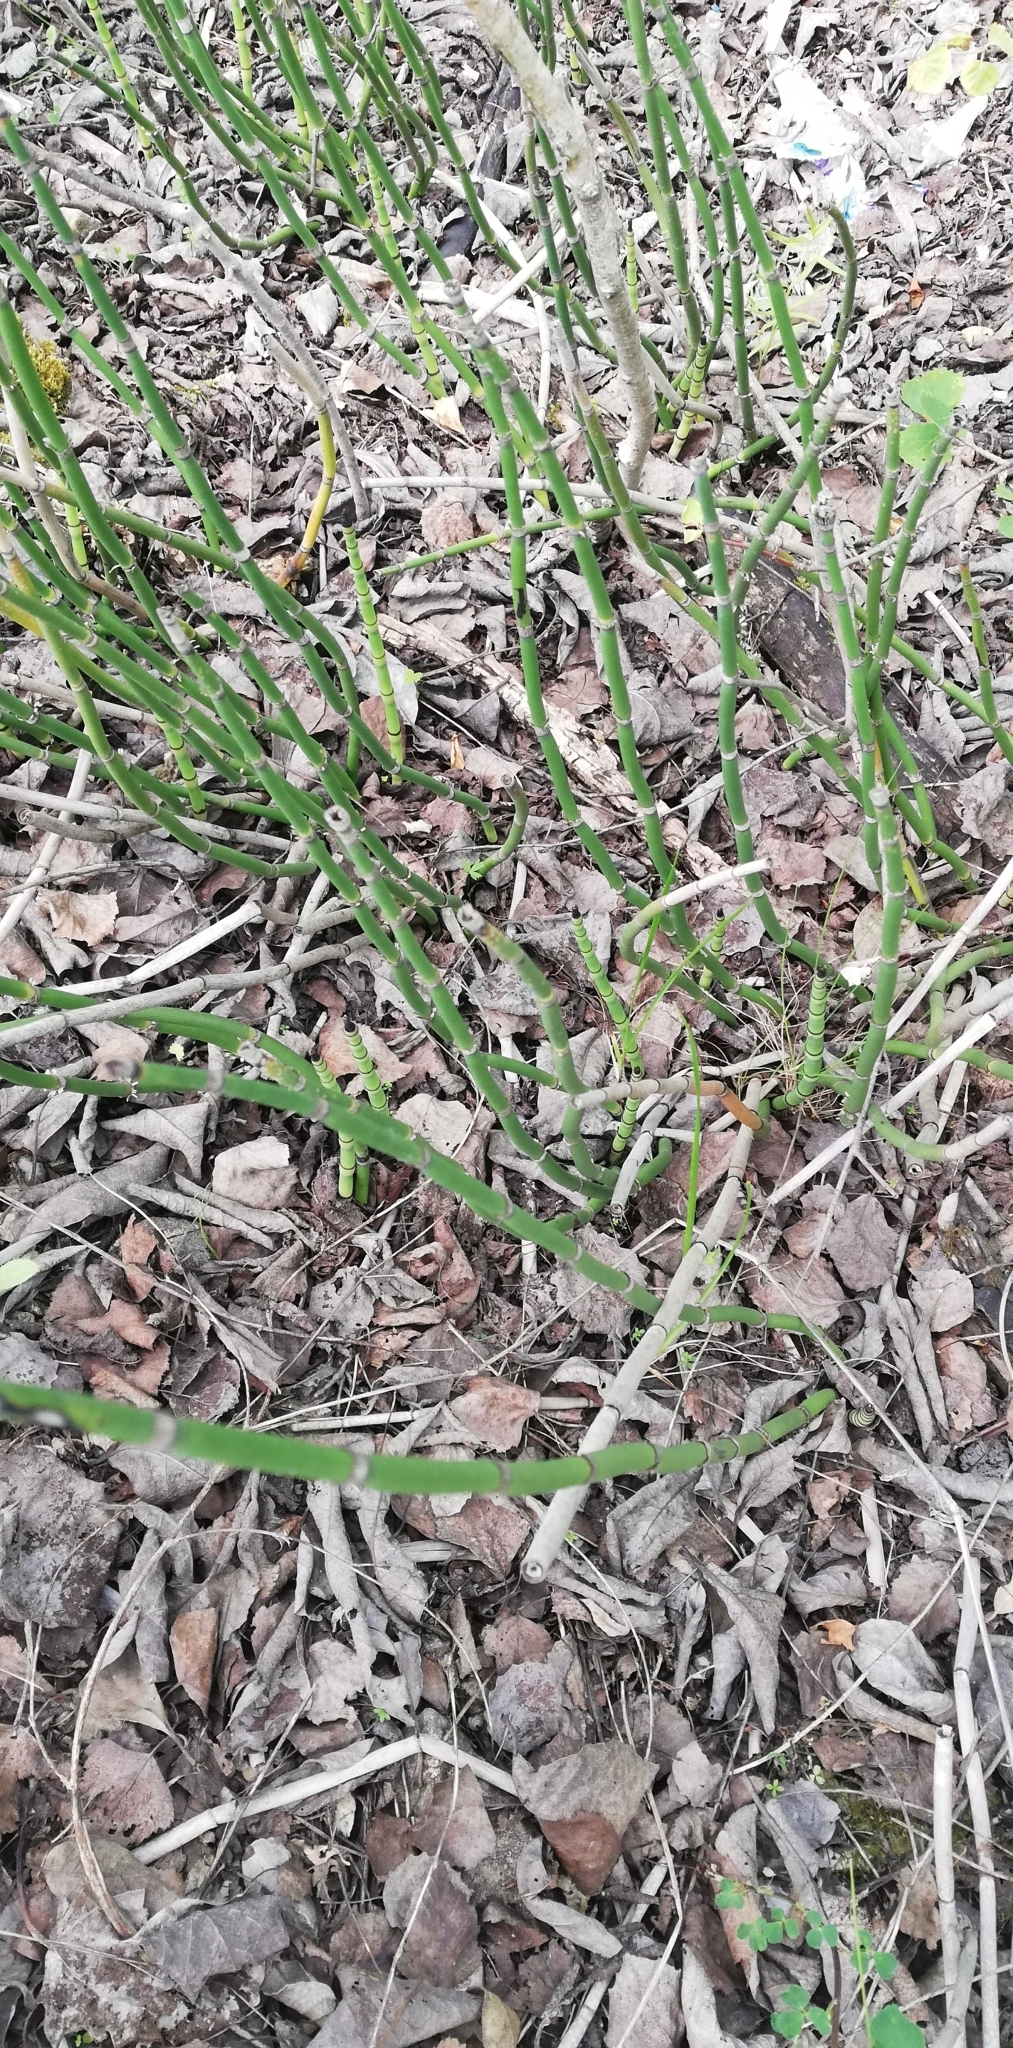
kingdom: Plantae
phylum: Tracheophyta
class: Polypodiopsida
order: Equisetales
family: Equisetaceae
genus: Equisetum
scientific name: Equisetum hyemale
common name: Rough horsetail
